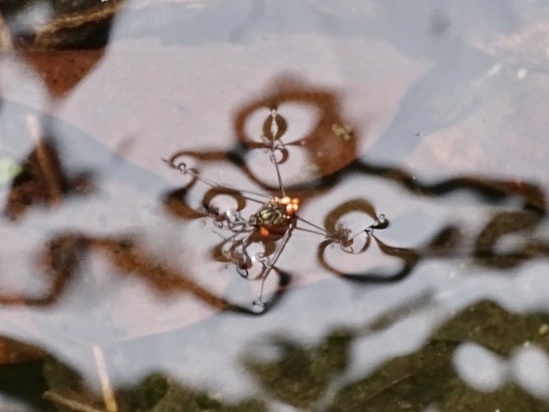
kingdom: Animalia
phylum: Arthropoda
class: Insecta
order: Hemiptera
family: Gerridae
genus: Metrocoris
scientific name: Metrocoris lituratus
